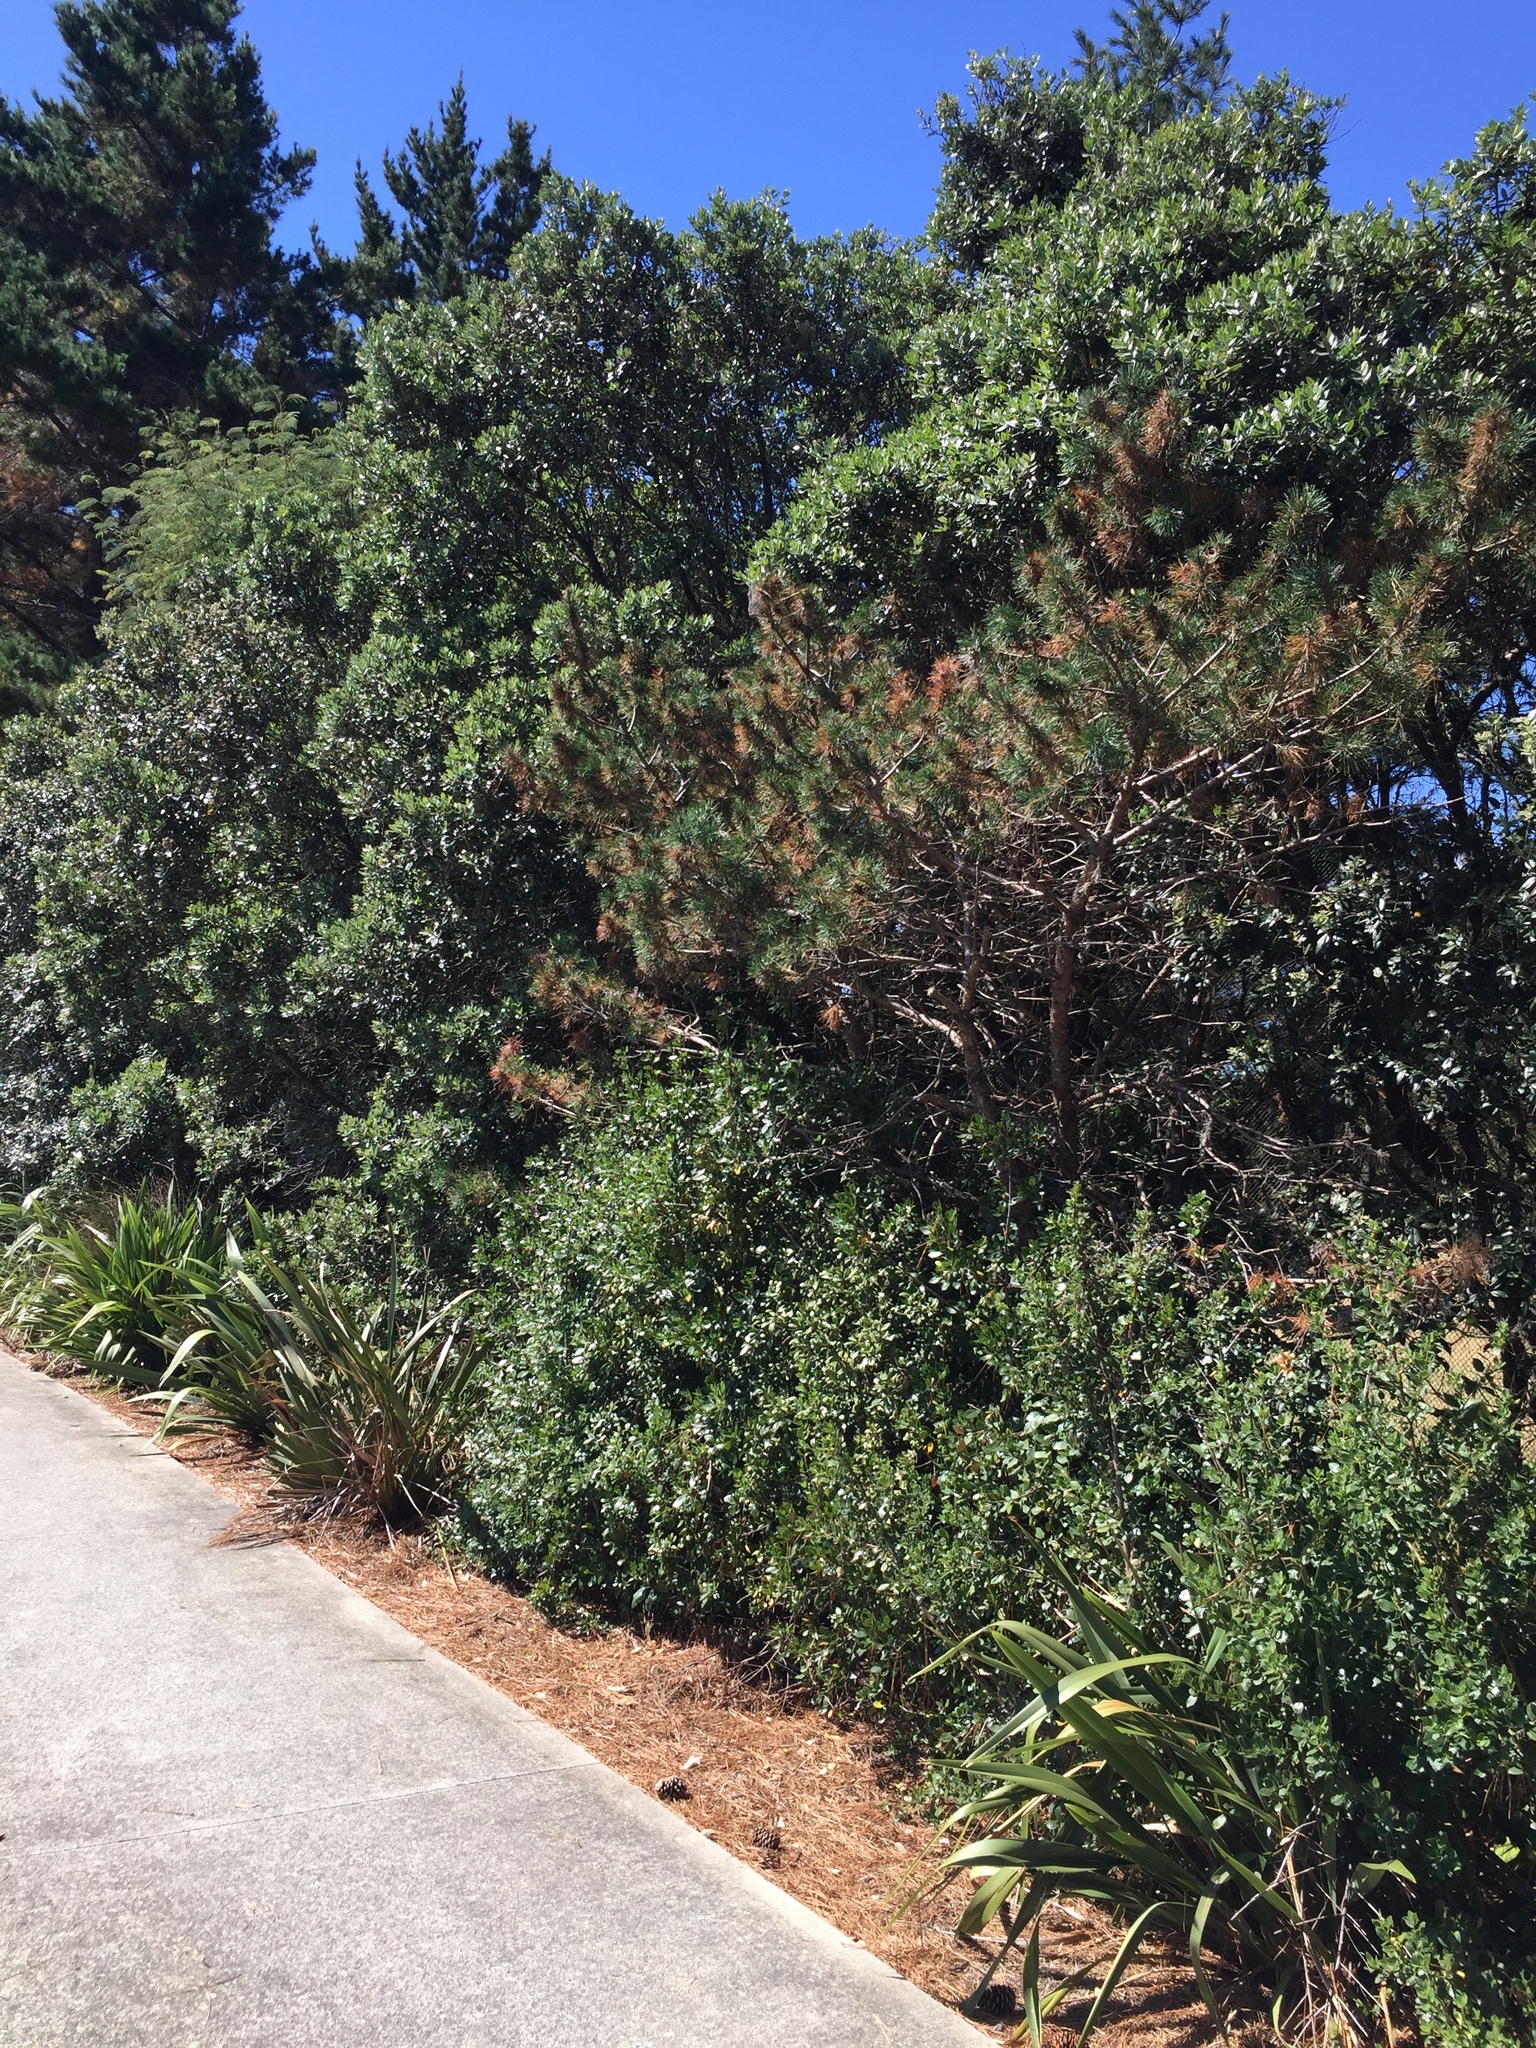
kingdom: Animalia
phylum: Arthropoda
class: Insecta
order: Hemiptera
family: Diaspididae
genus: Lindingaspis
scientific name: Lindingaspis rossi
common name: Araucaria black scale
